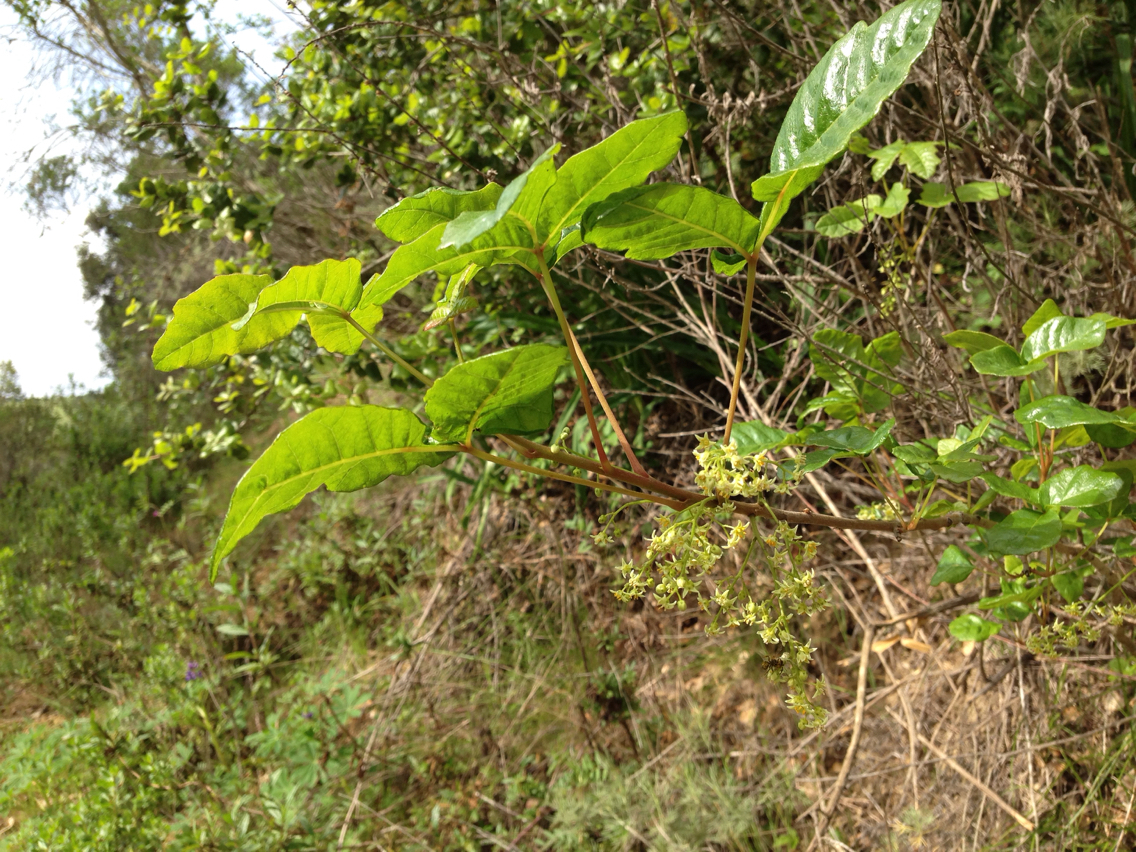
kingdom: Plantae
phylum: Tracheophyta
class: Magnoliopsida
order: Sapindales
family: Anacardiaceae
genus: Toxicodendron
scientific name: Toxicodendron diversilobum
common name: Pacific poison-oak
